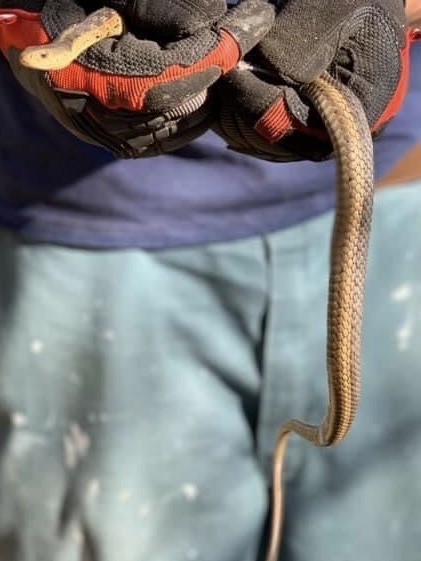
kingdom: Animalia
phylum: Chordata
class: Squamata
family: Colubridae
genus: Thamnophis
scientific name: Thamnophis sirtalis
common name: Common garter snake
